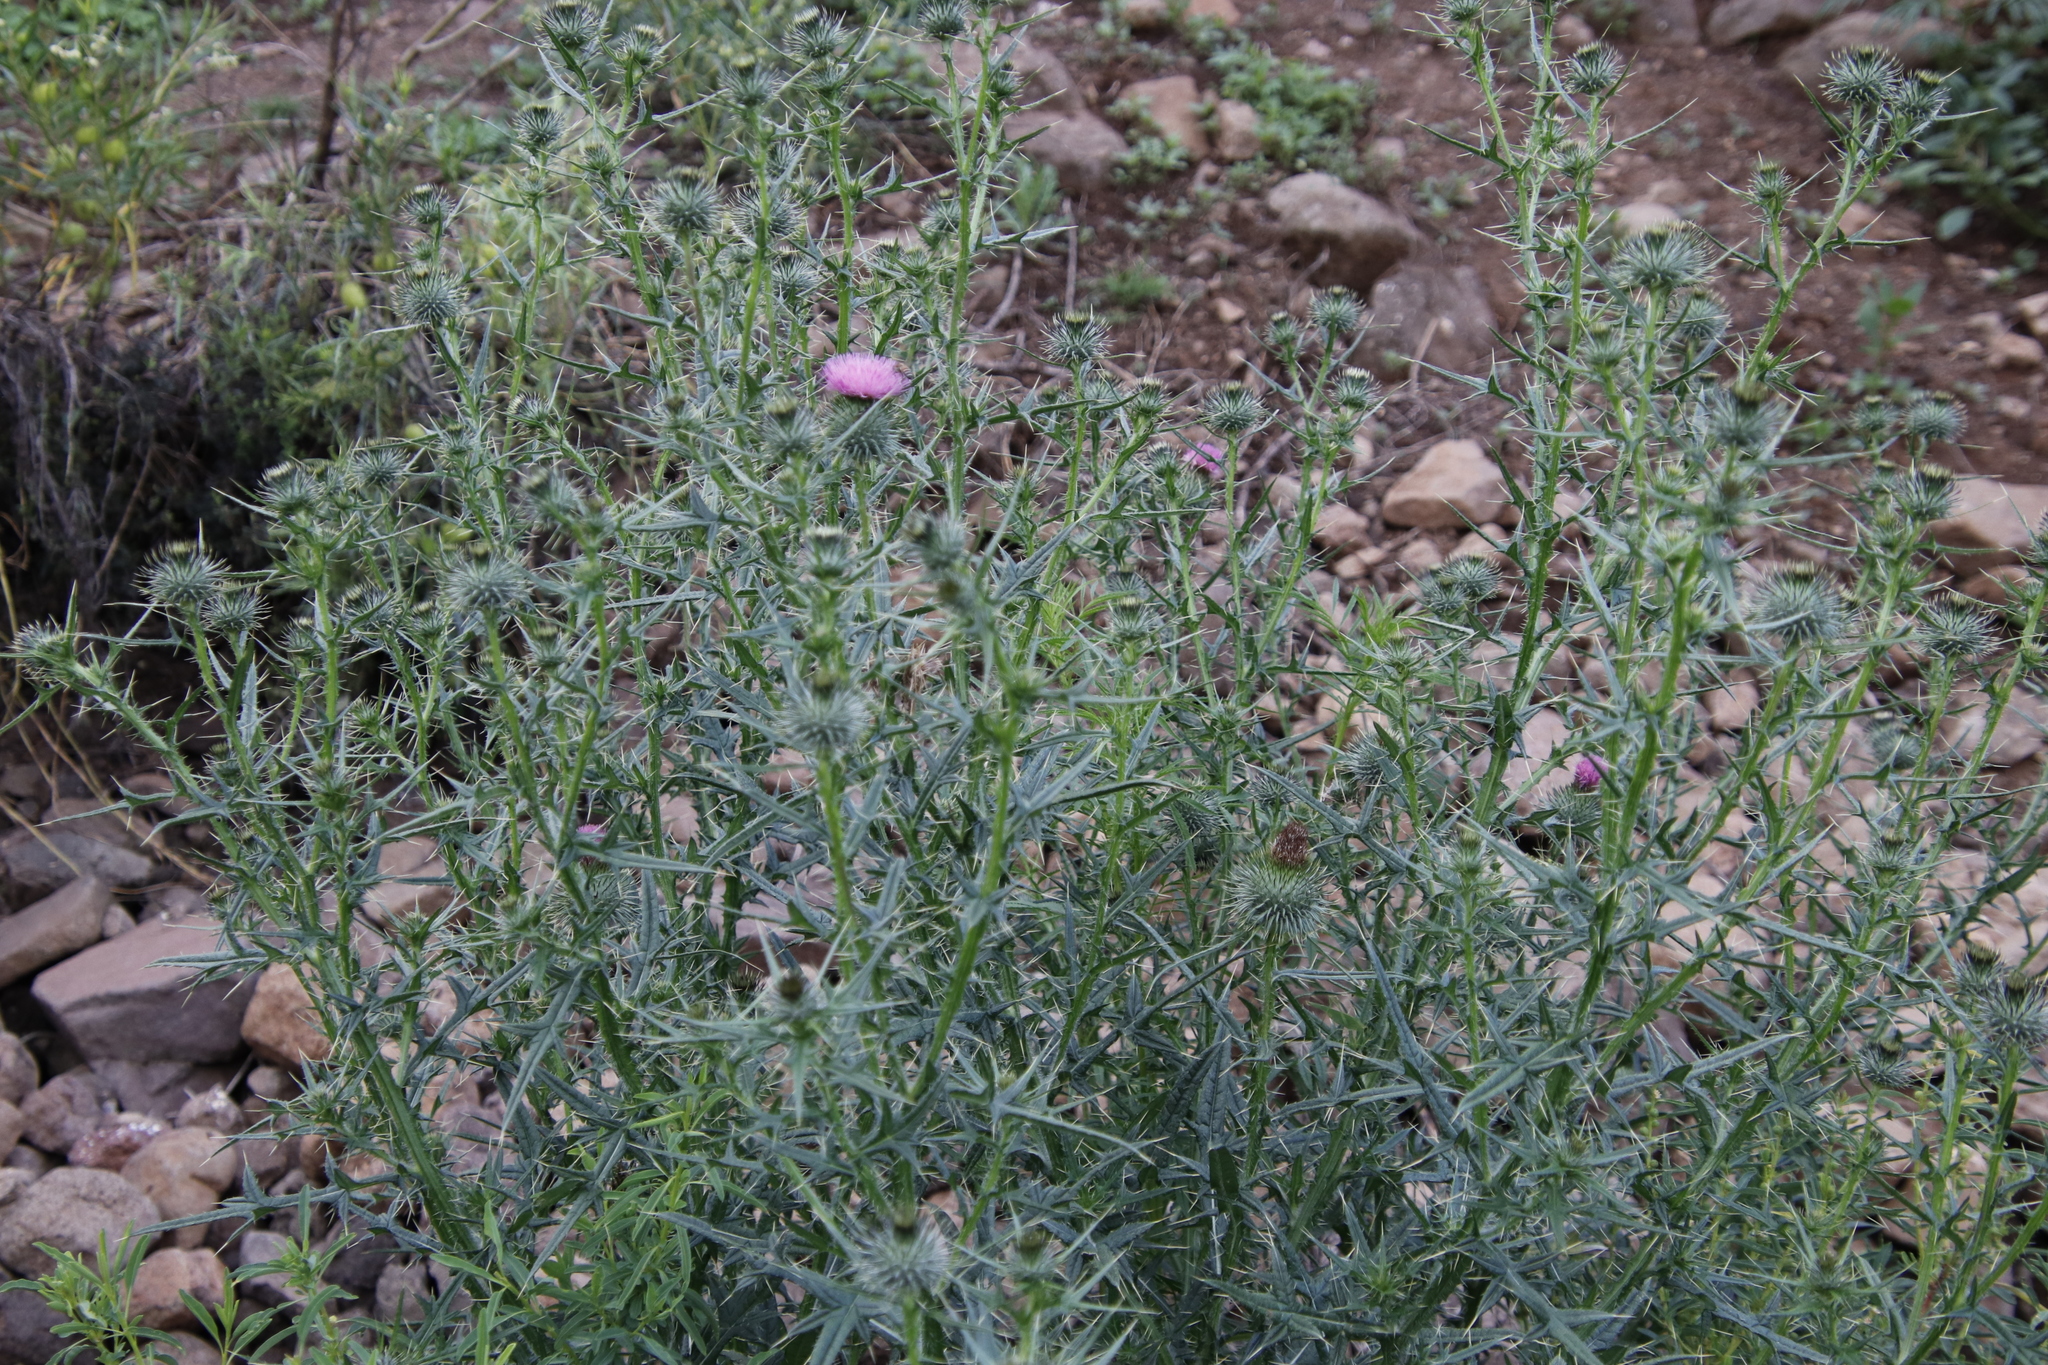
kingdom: Plantae
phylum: Tracheophyta
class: Magnoliopsida
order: Asterales
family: Asteraceae
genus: Cirsium
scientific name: Cirsium vulgare
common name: Bull thistle
